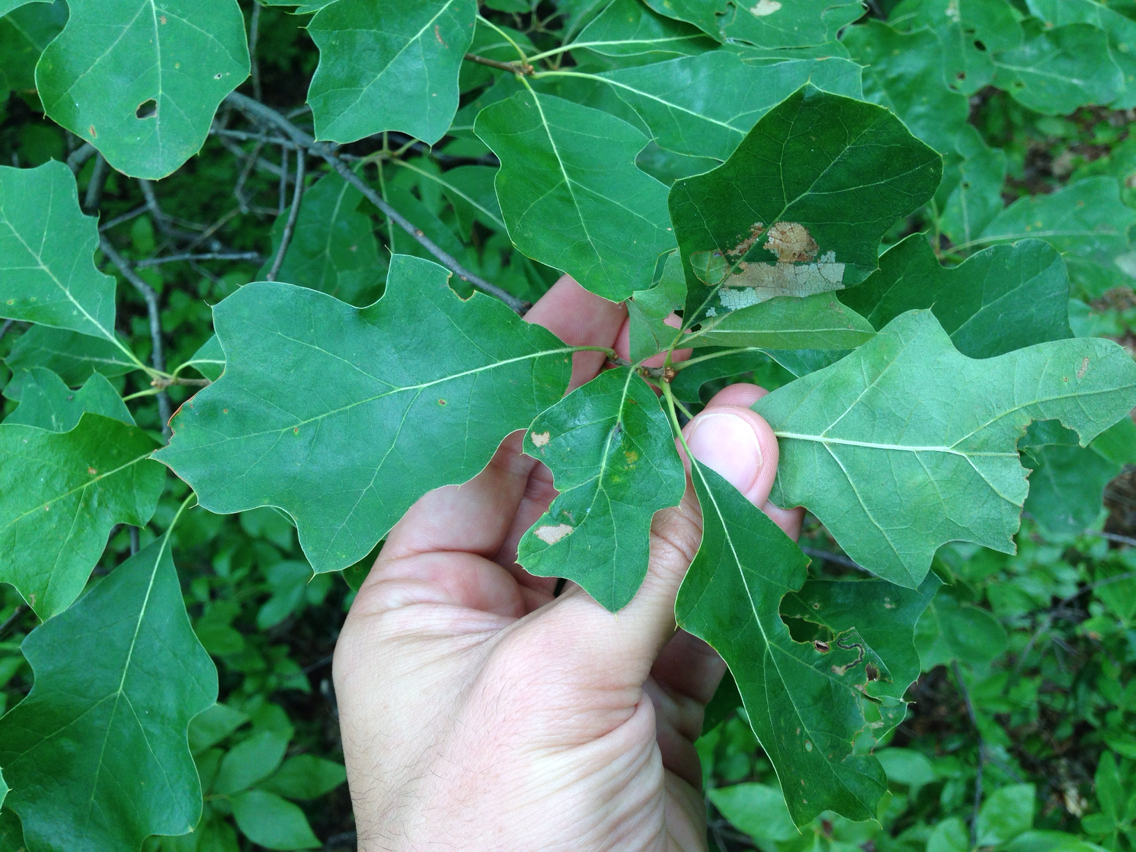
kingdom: Plantae
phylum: Tracheophyta
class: Magnoliopsida
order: Fagales
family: Fagaceae
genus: Quercus
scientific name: Quercus ilicifolia
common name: Bear oak
